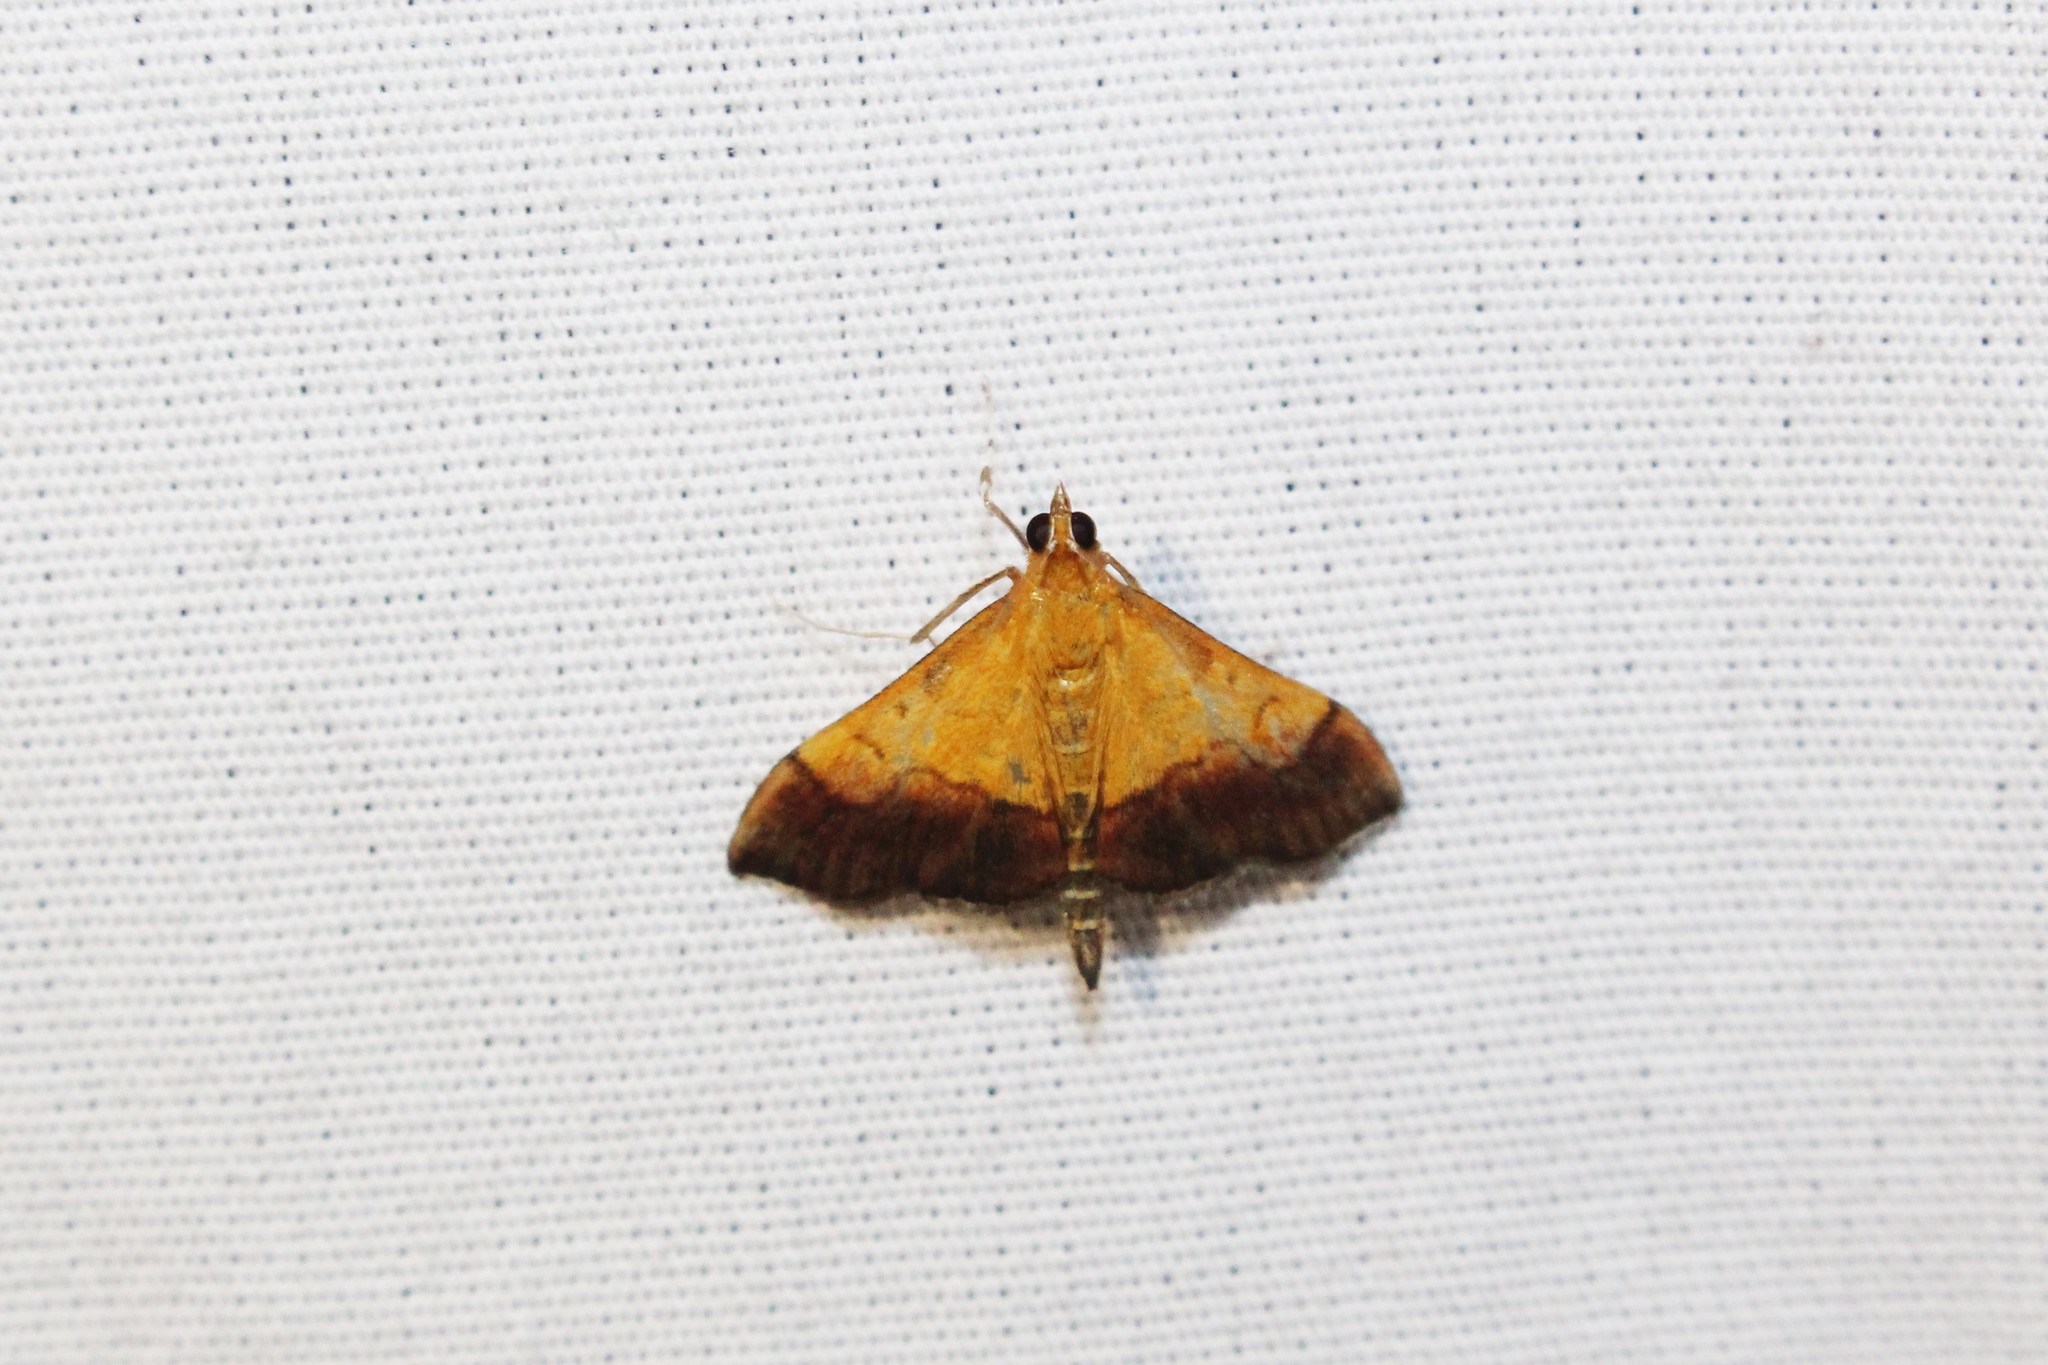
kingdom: Animalia
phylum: Arthropoda
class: Insecta
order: Lepidoptera
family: Crambidae
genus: Pyrausta
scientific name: Pyrausta bicoloralis
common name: Bicolored pyrausta moth
